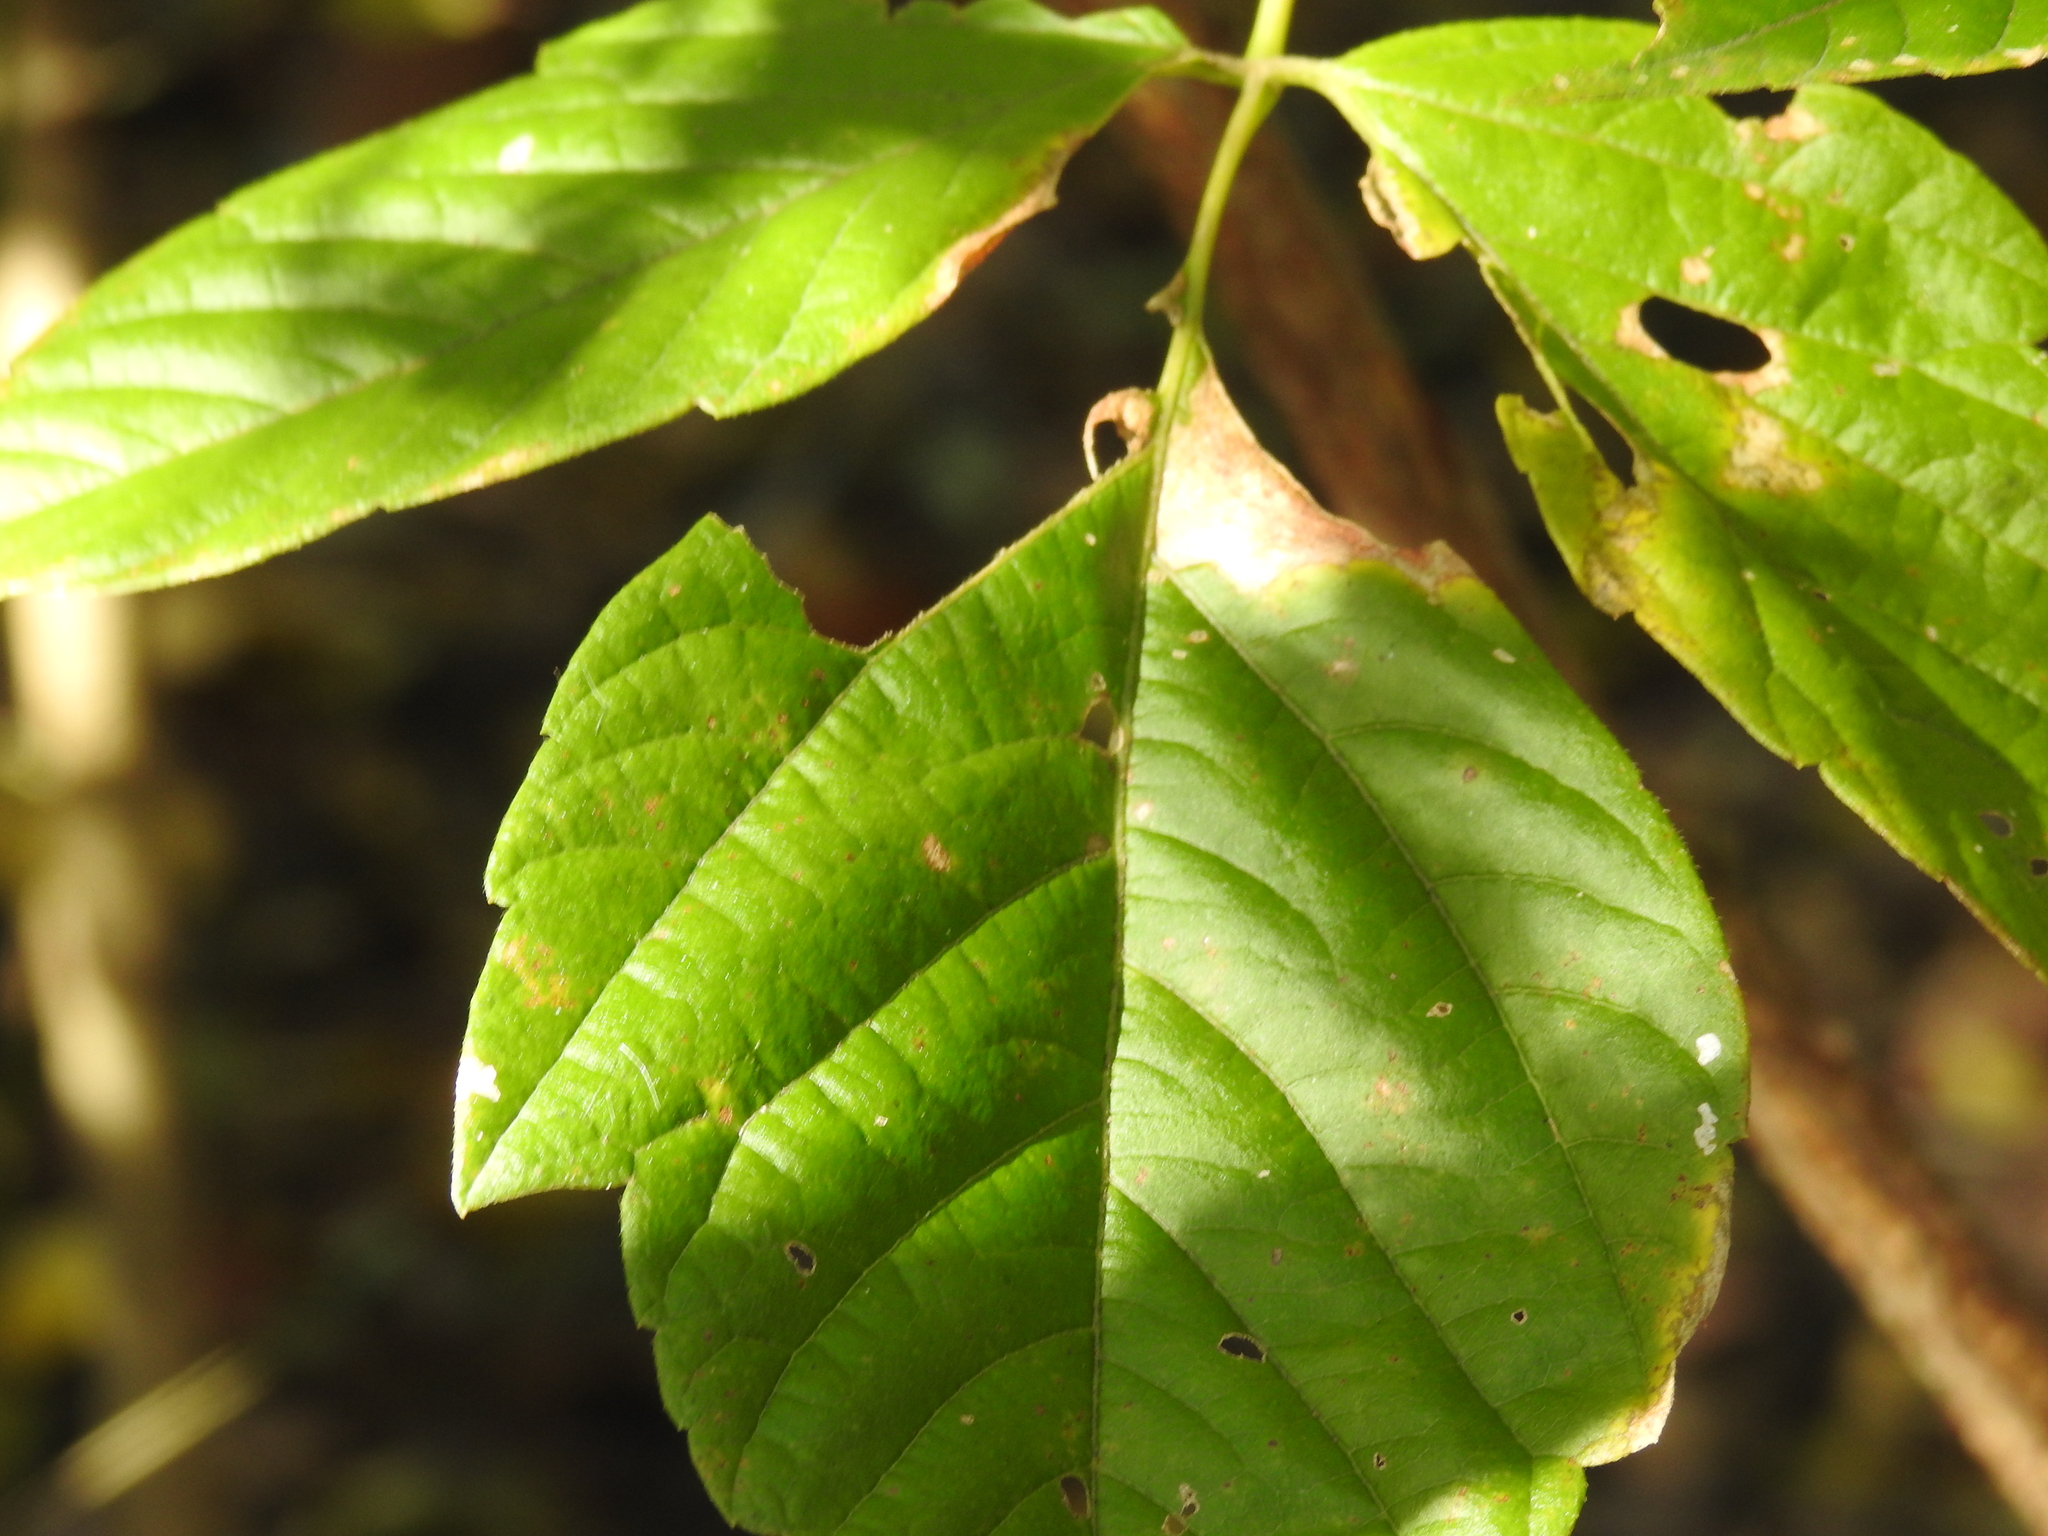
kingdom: Plantae
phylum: Tracheophyta
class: Magnoliopsida
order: Sapindales
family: Sapindaceae
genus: Acer
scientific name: Acer negundo
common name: Ashleaf maple
